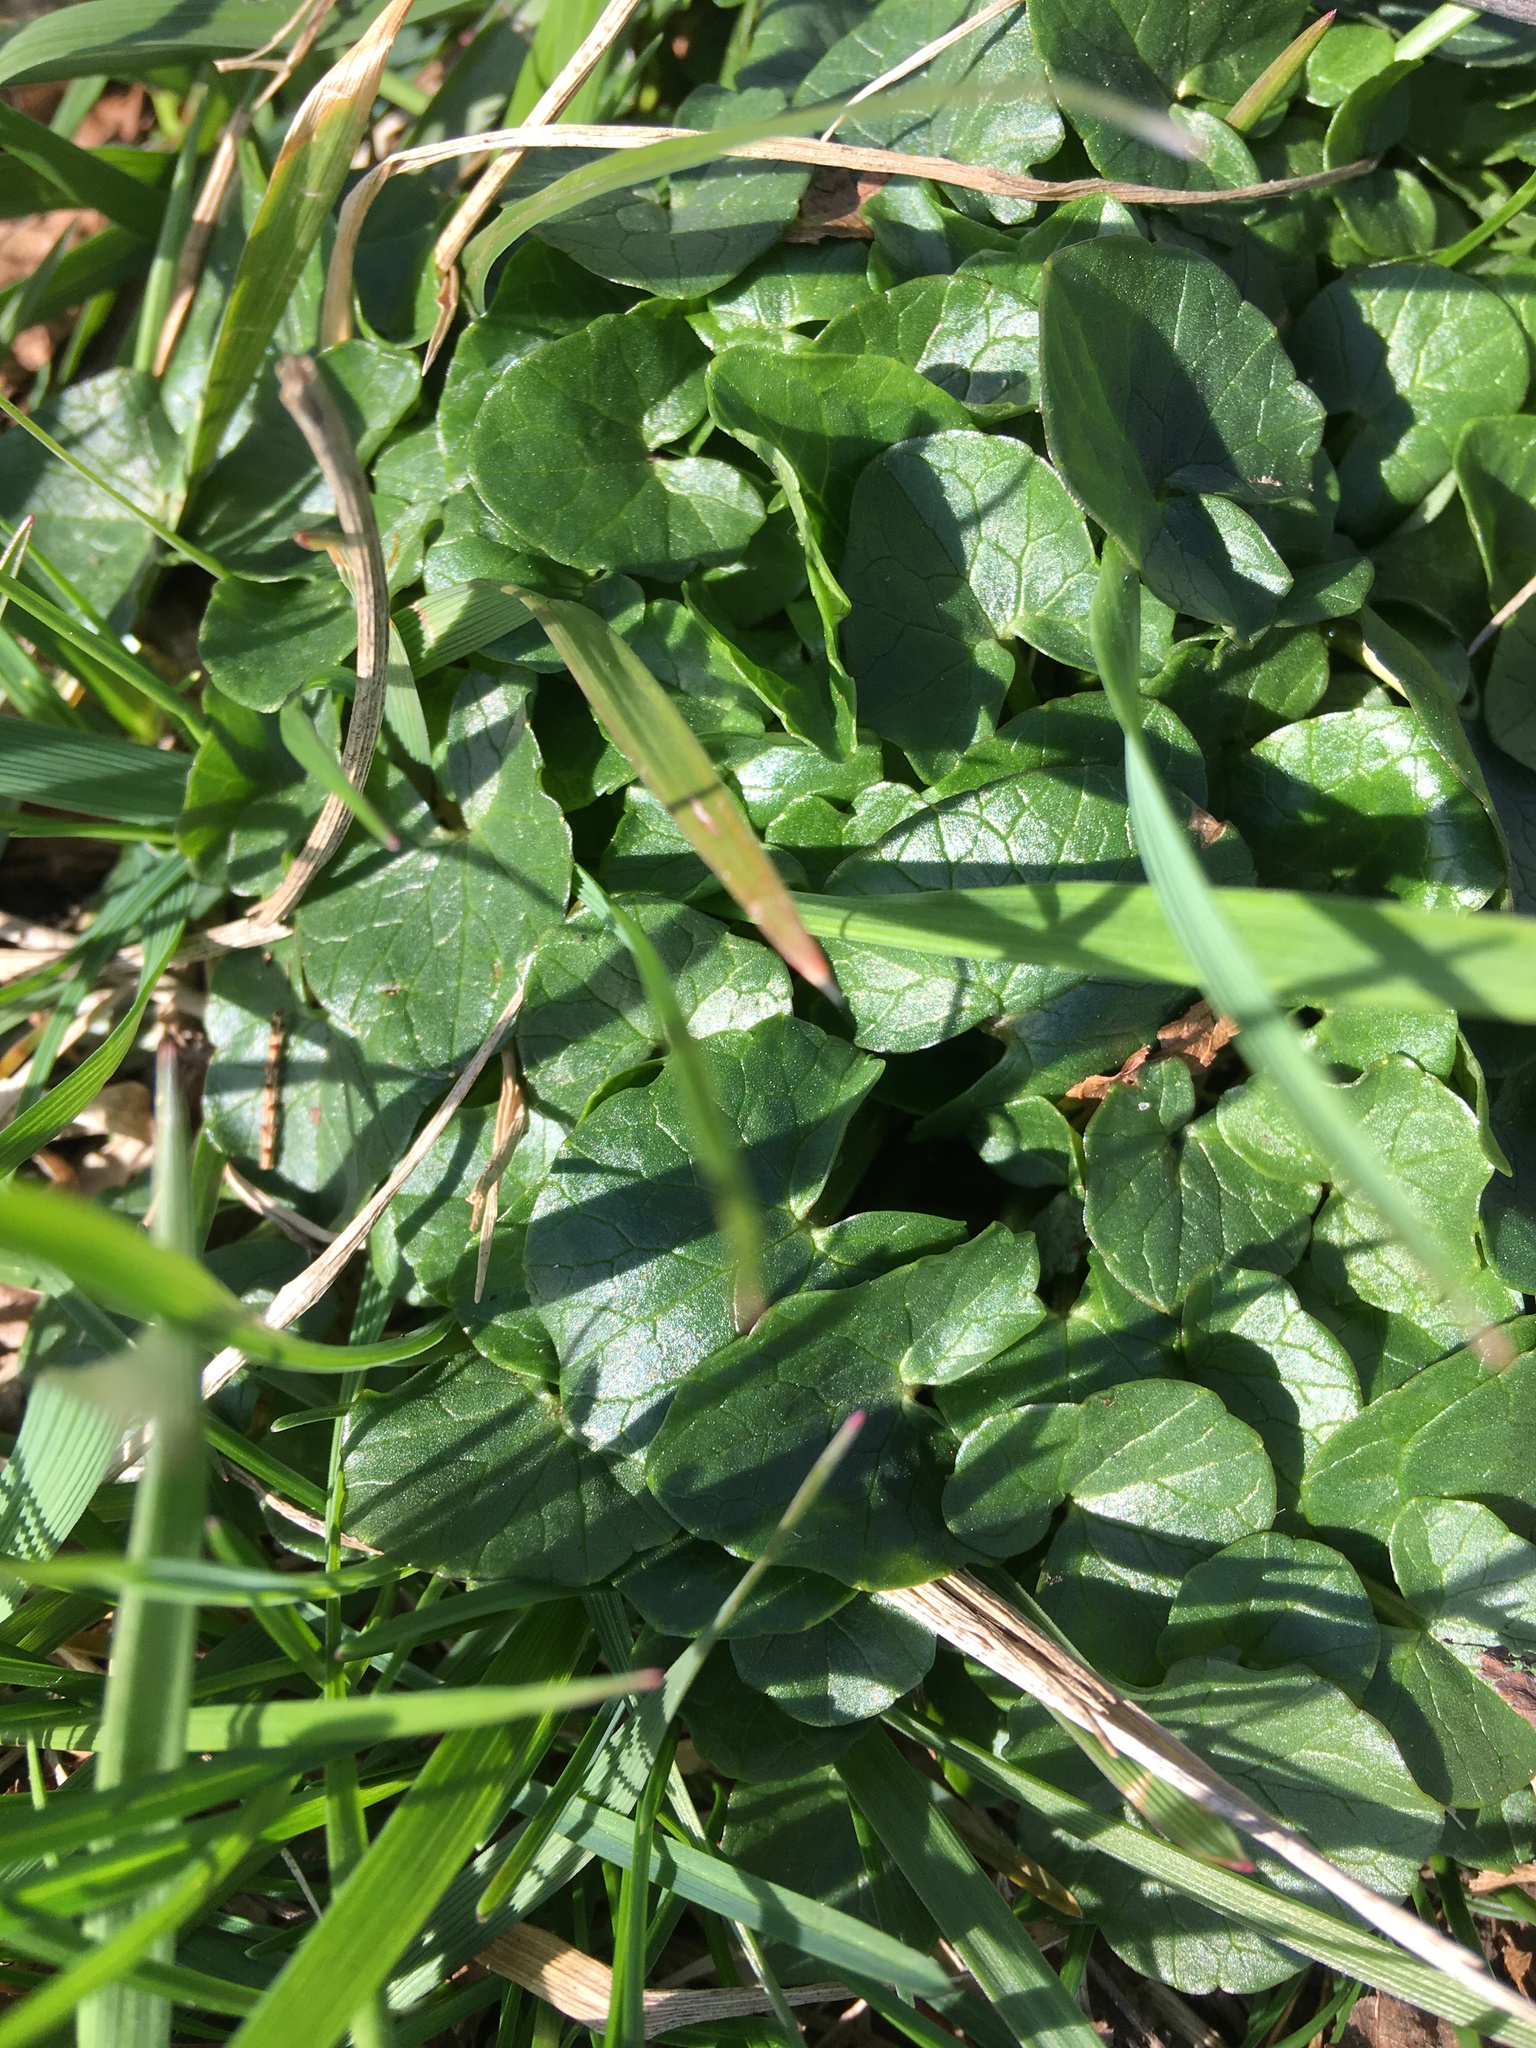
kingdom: Plantae
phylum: Tracheophyta
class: Magnoliopsida
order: Ranunculales
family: Ranunculaceae
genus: Ficaria
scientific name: Ficaria verna
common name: Lesser celandine
